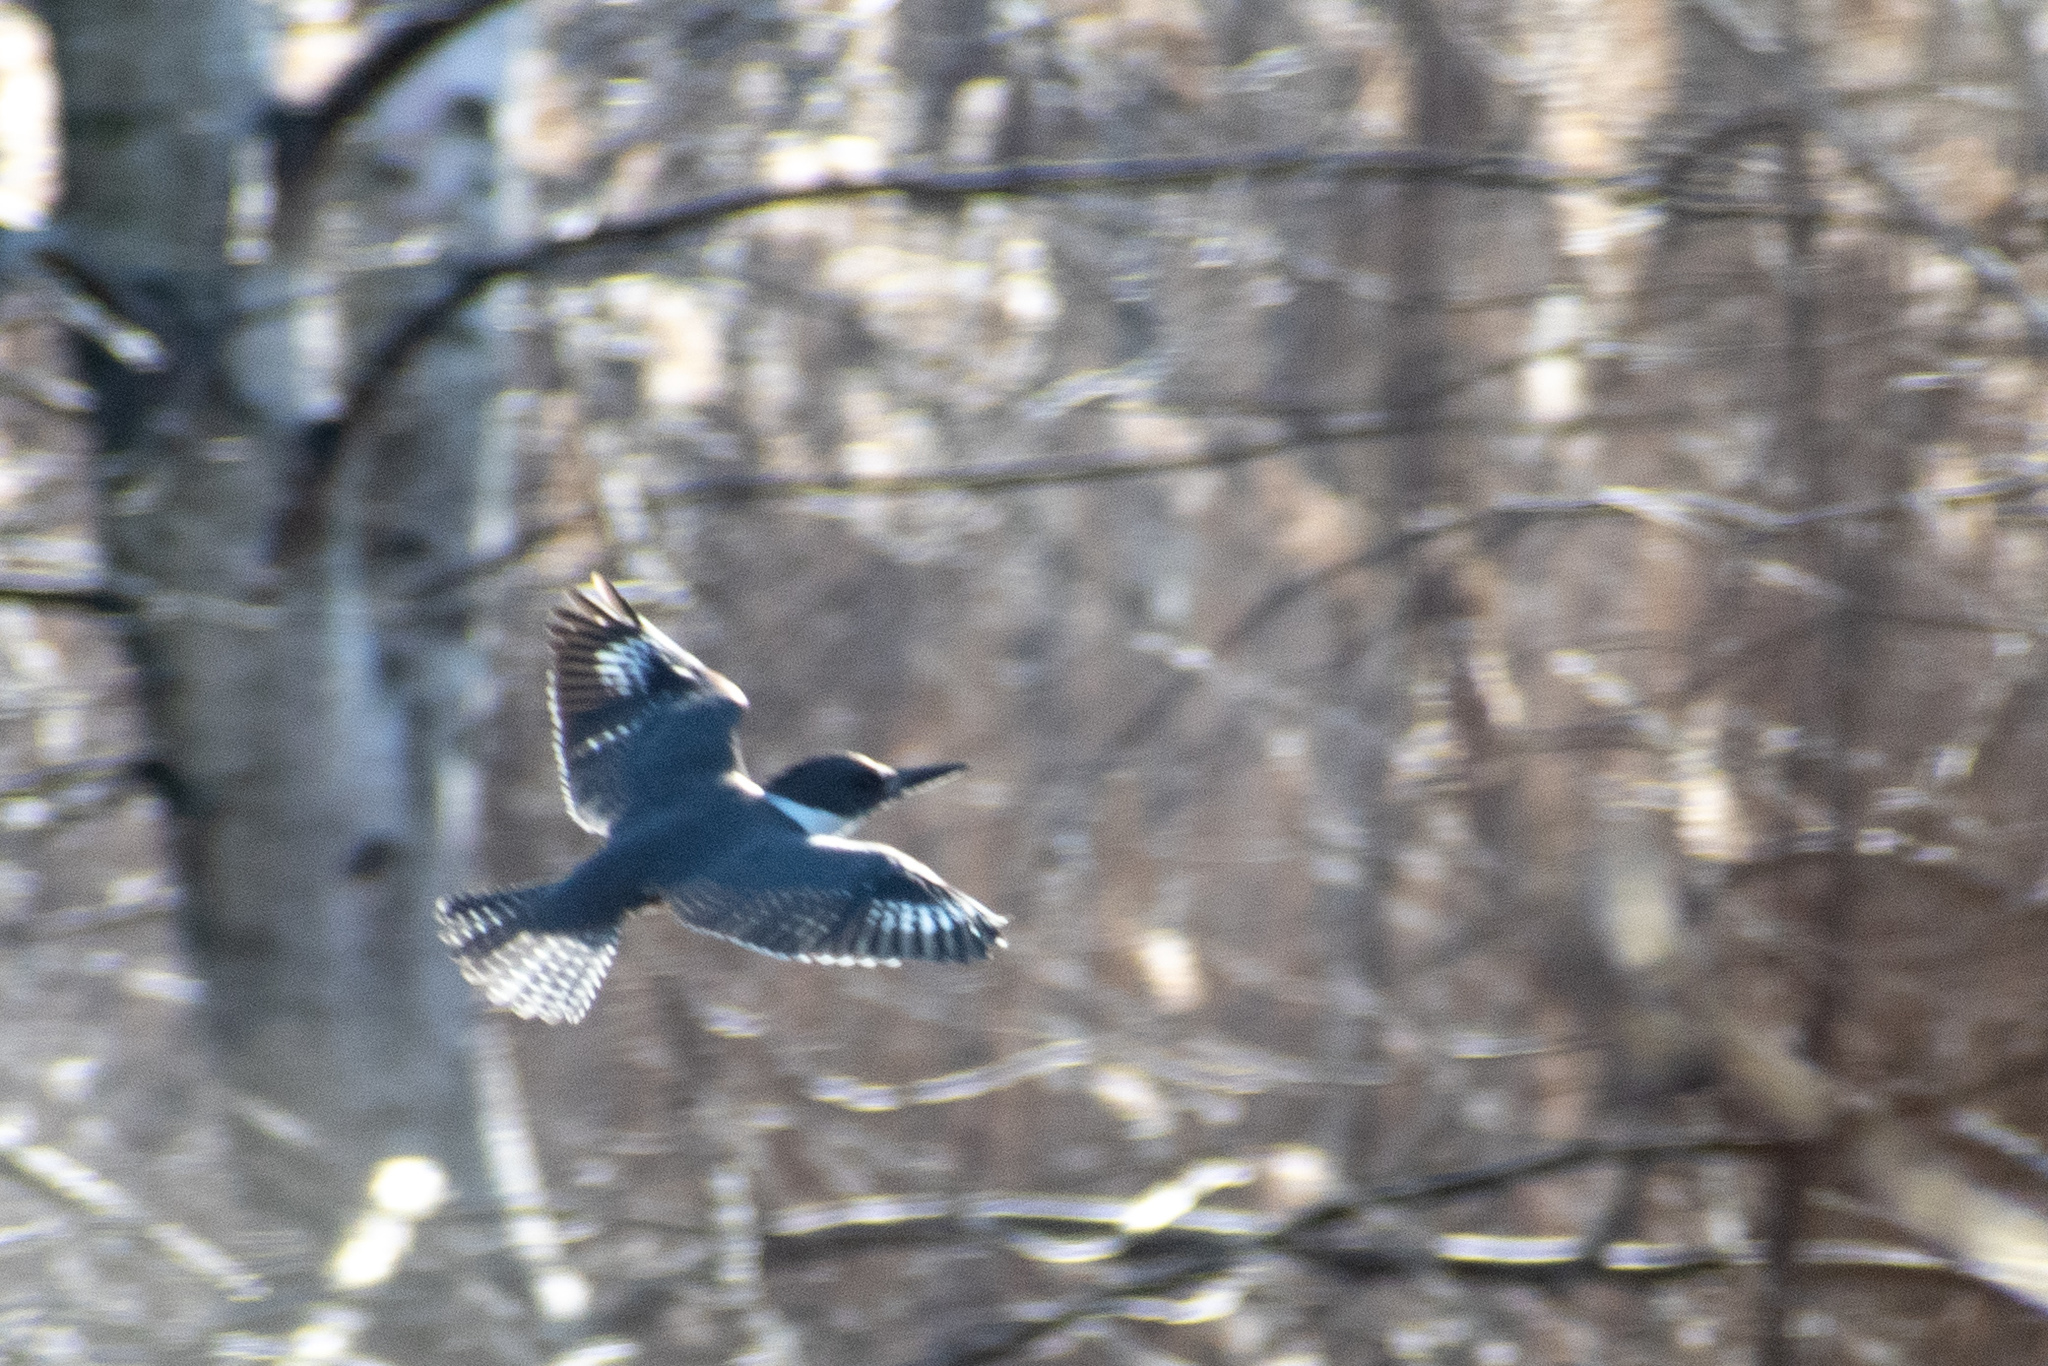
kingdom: Animalia
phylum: Chordata
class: Aves
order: Coraciiformes
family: Alcedinidae
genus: Megaceryle
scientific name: Megaceryle alcyon
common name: Belted kingfisher
